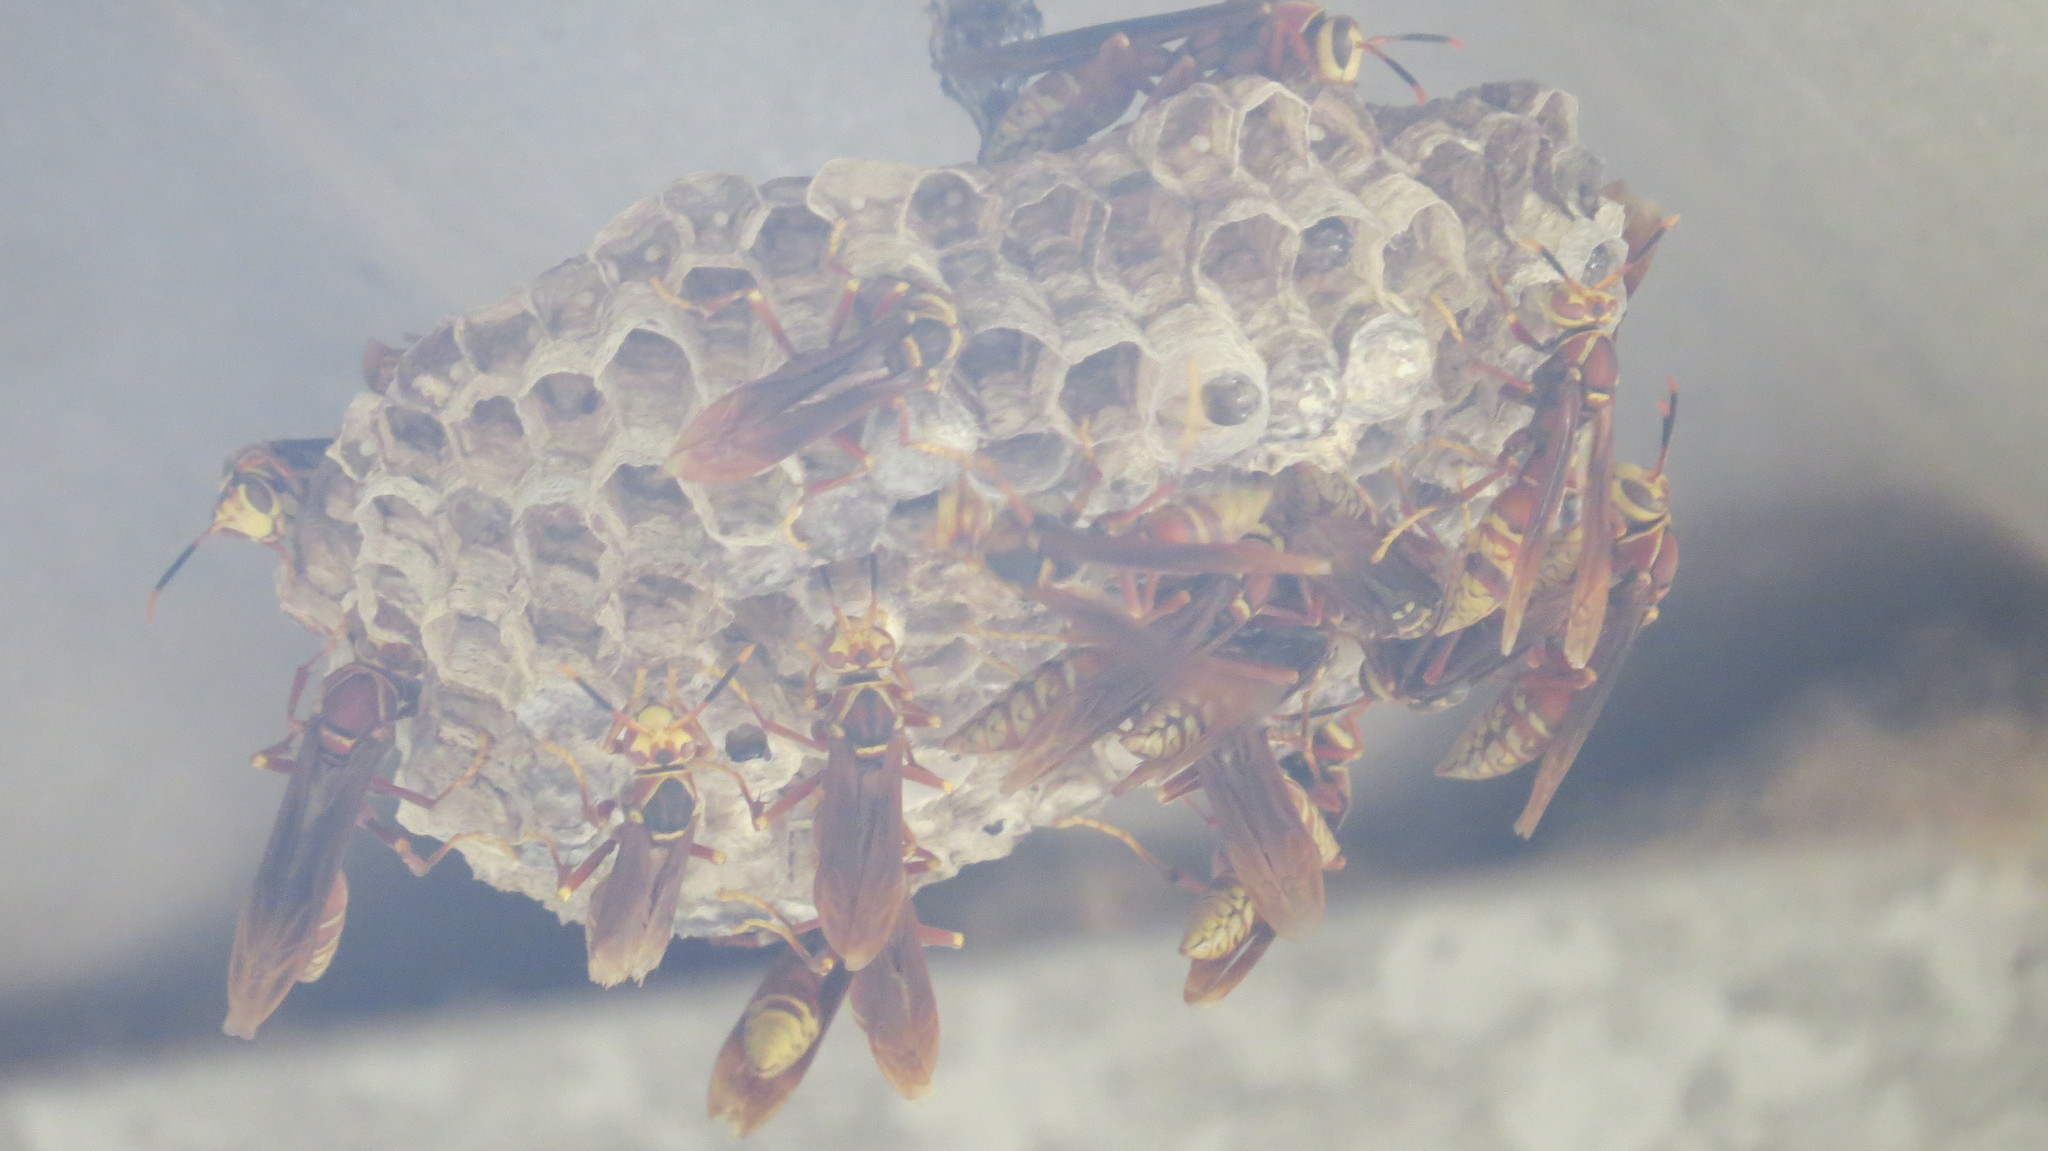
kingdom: Animalia
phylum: Arthropoda
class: Insecta
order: Hymenoptera
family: Eumenidae
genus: Polistes
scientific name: Polistes cavapyta
